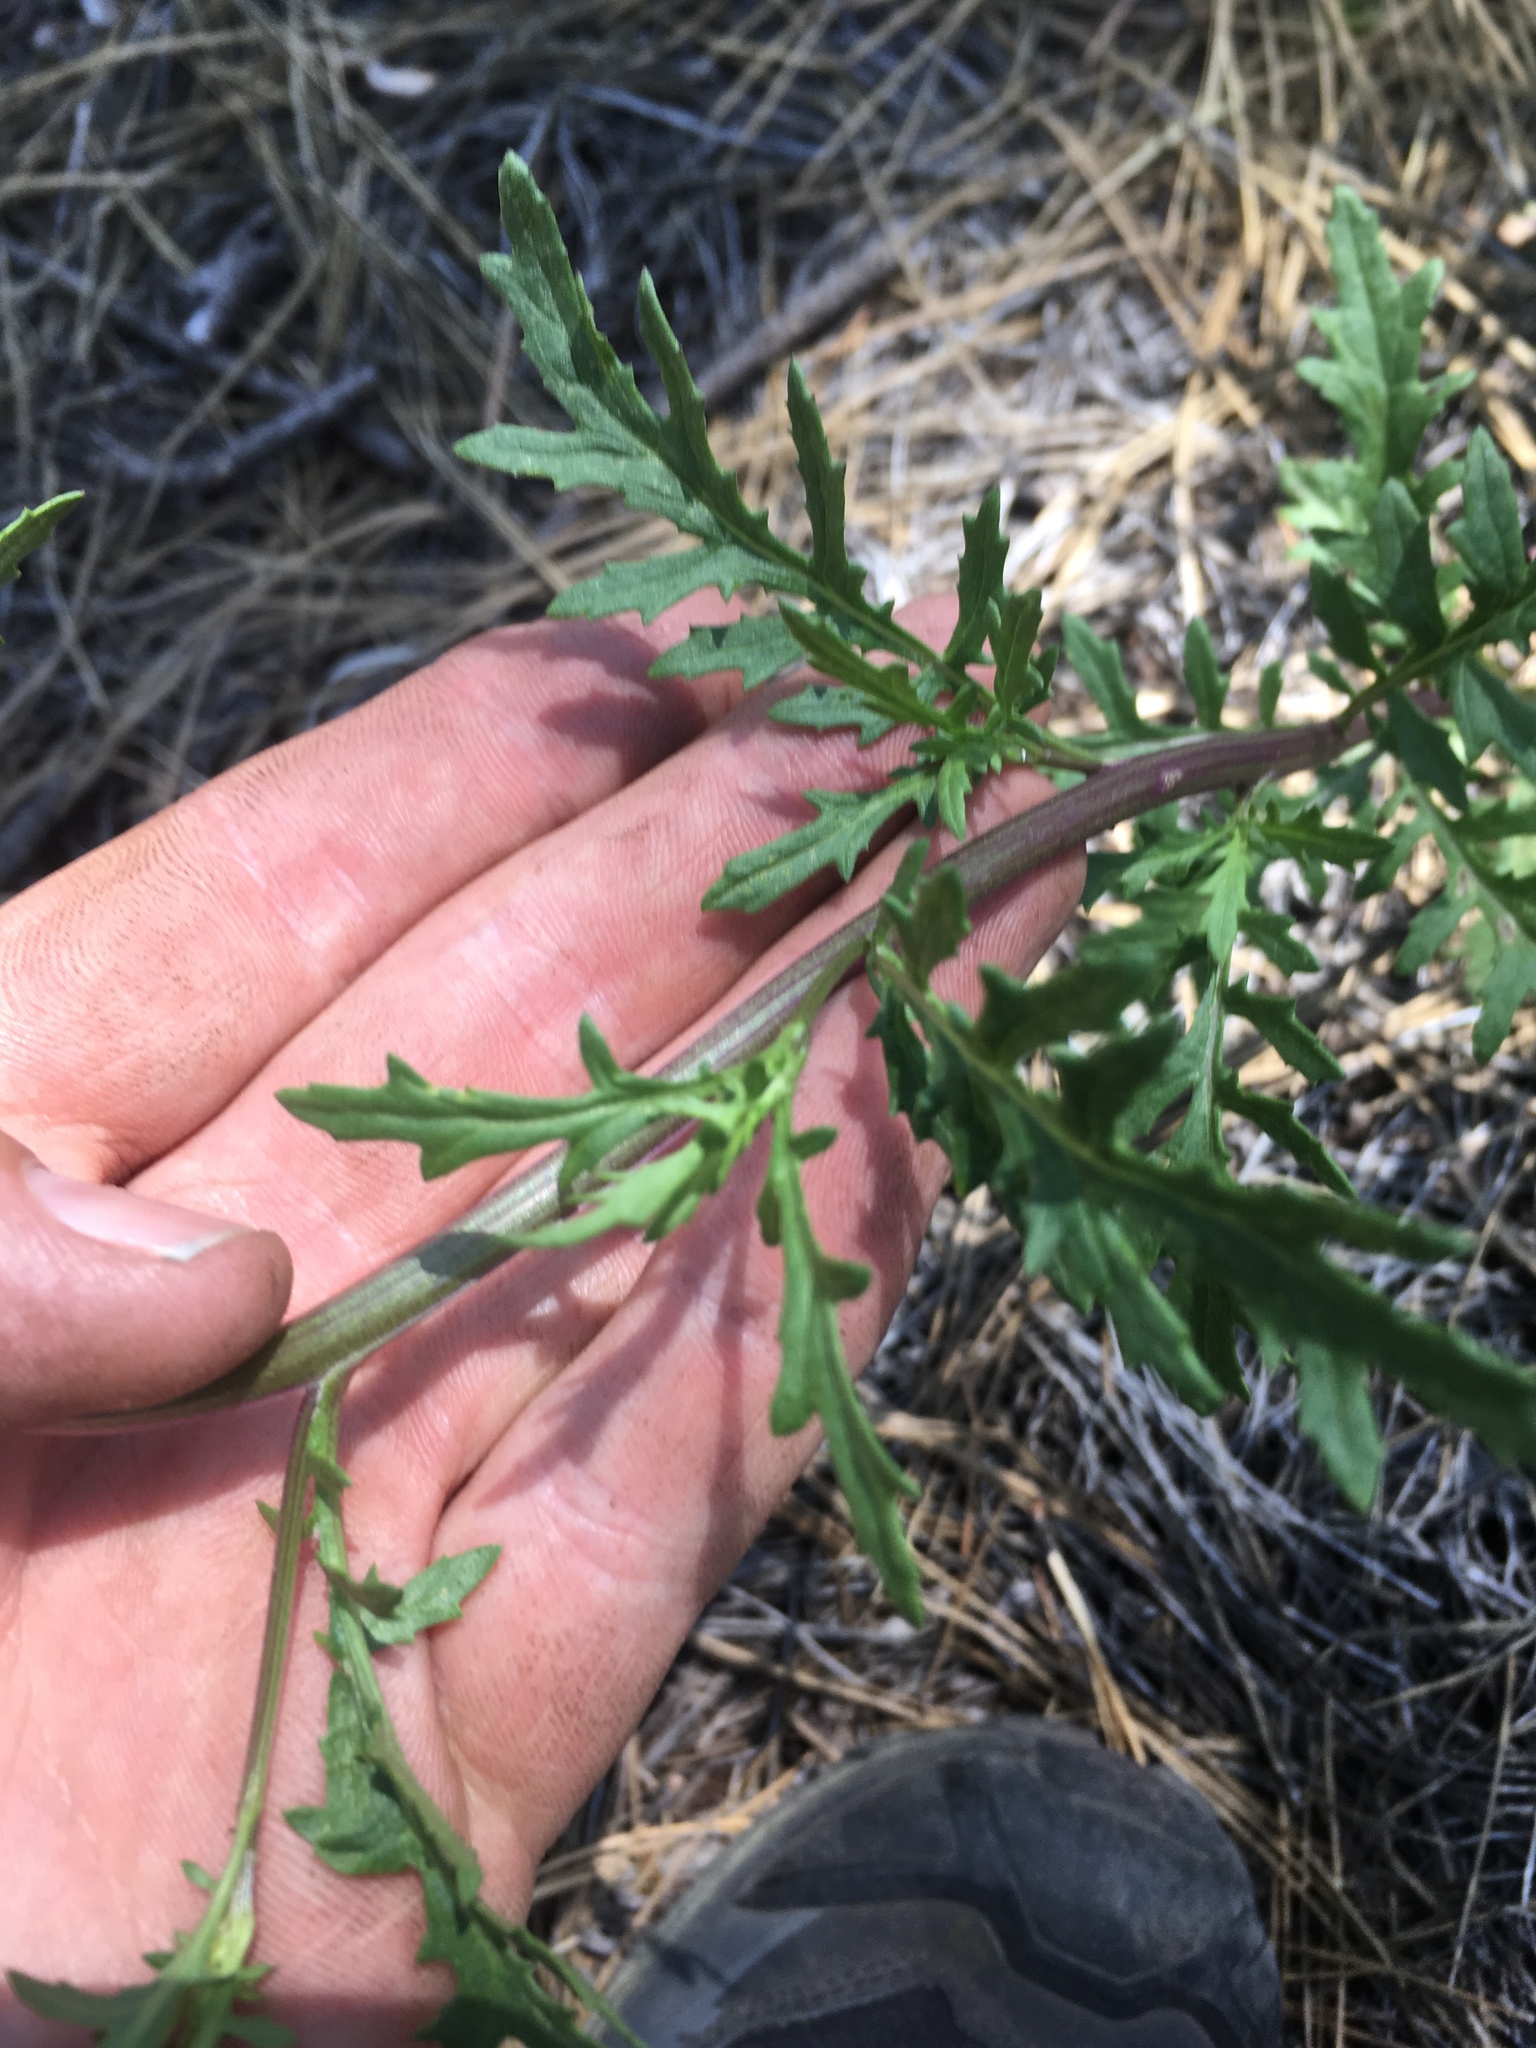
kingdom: Plantae
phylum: Tracheophyta
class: Magnoliopsida
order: Asterales
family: Asteraceae
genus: Senecio
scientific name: Senecio eremophilus
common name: Desert ragwort
